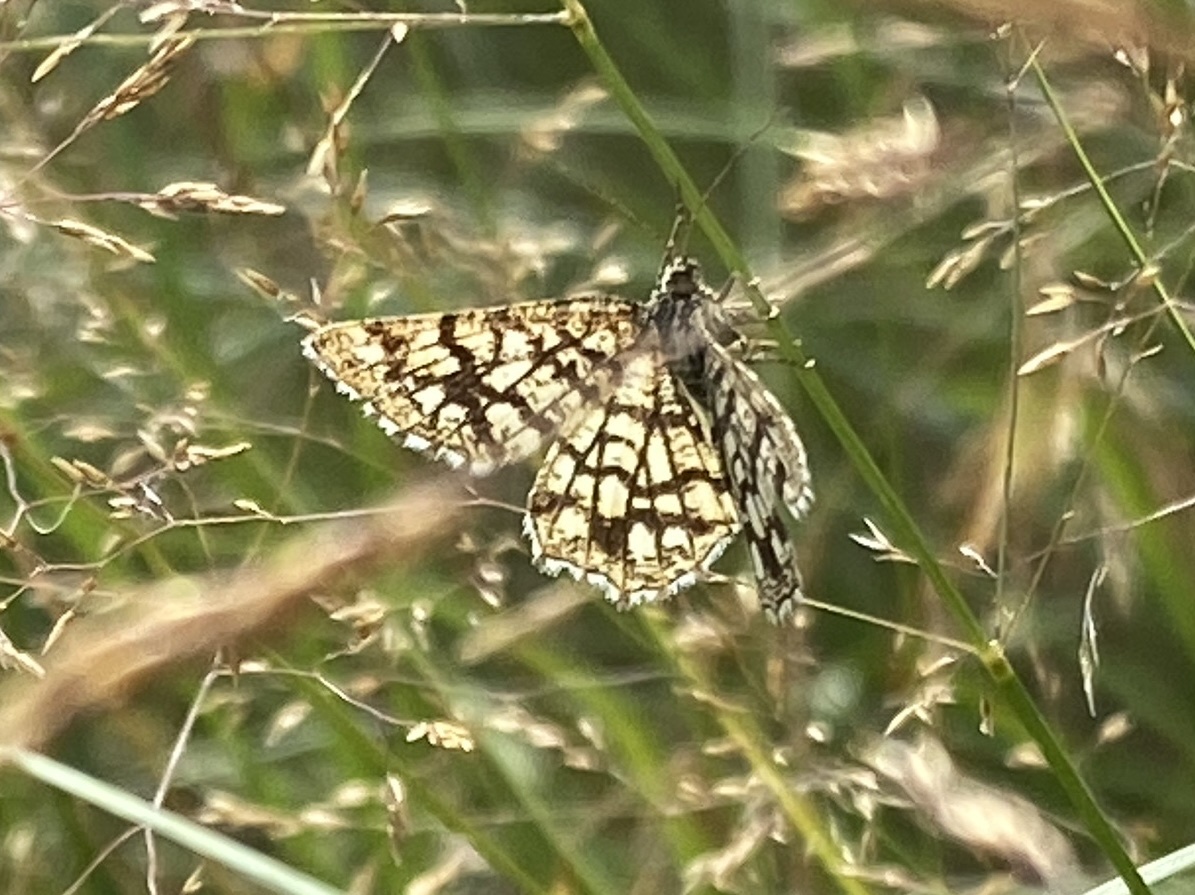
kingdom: Animalia
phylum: Arthropoda
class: Insecta
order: Lepidoptera
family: Geometridae
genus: Chiasmia
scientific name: Chiasmia clathrata
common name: Latticed heath
